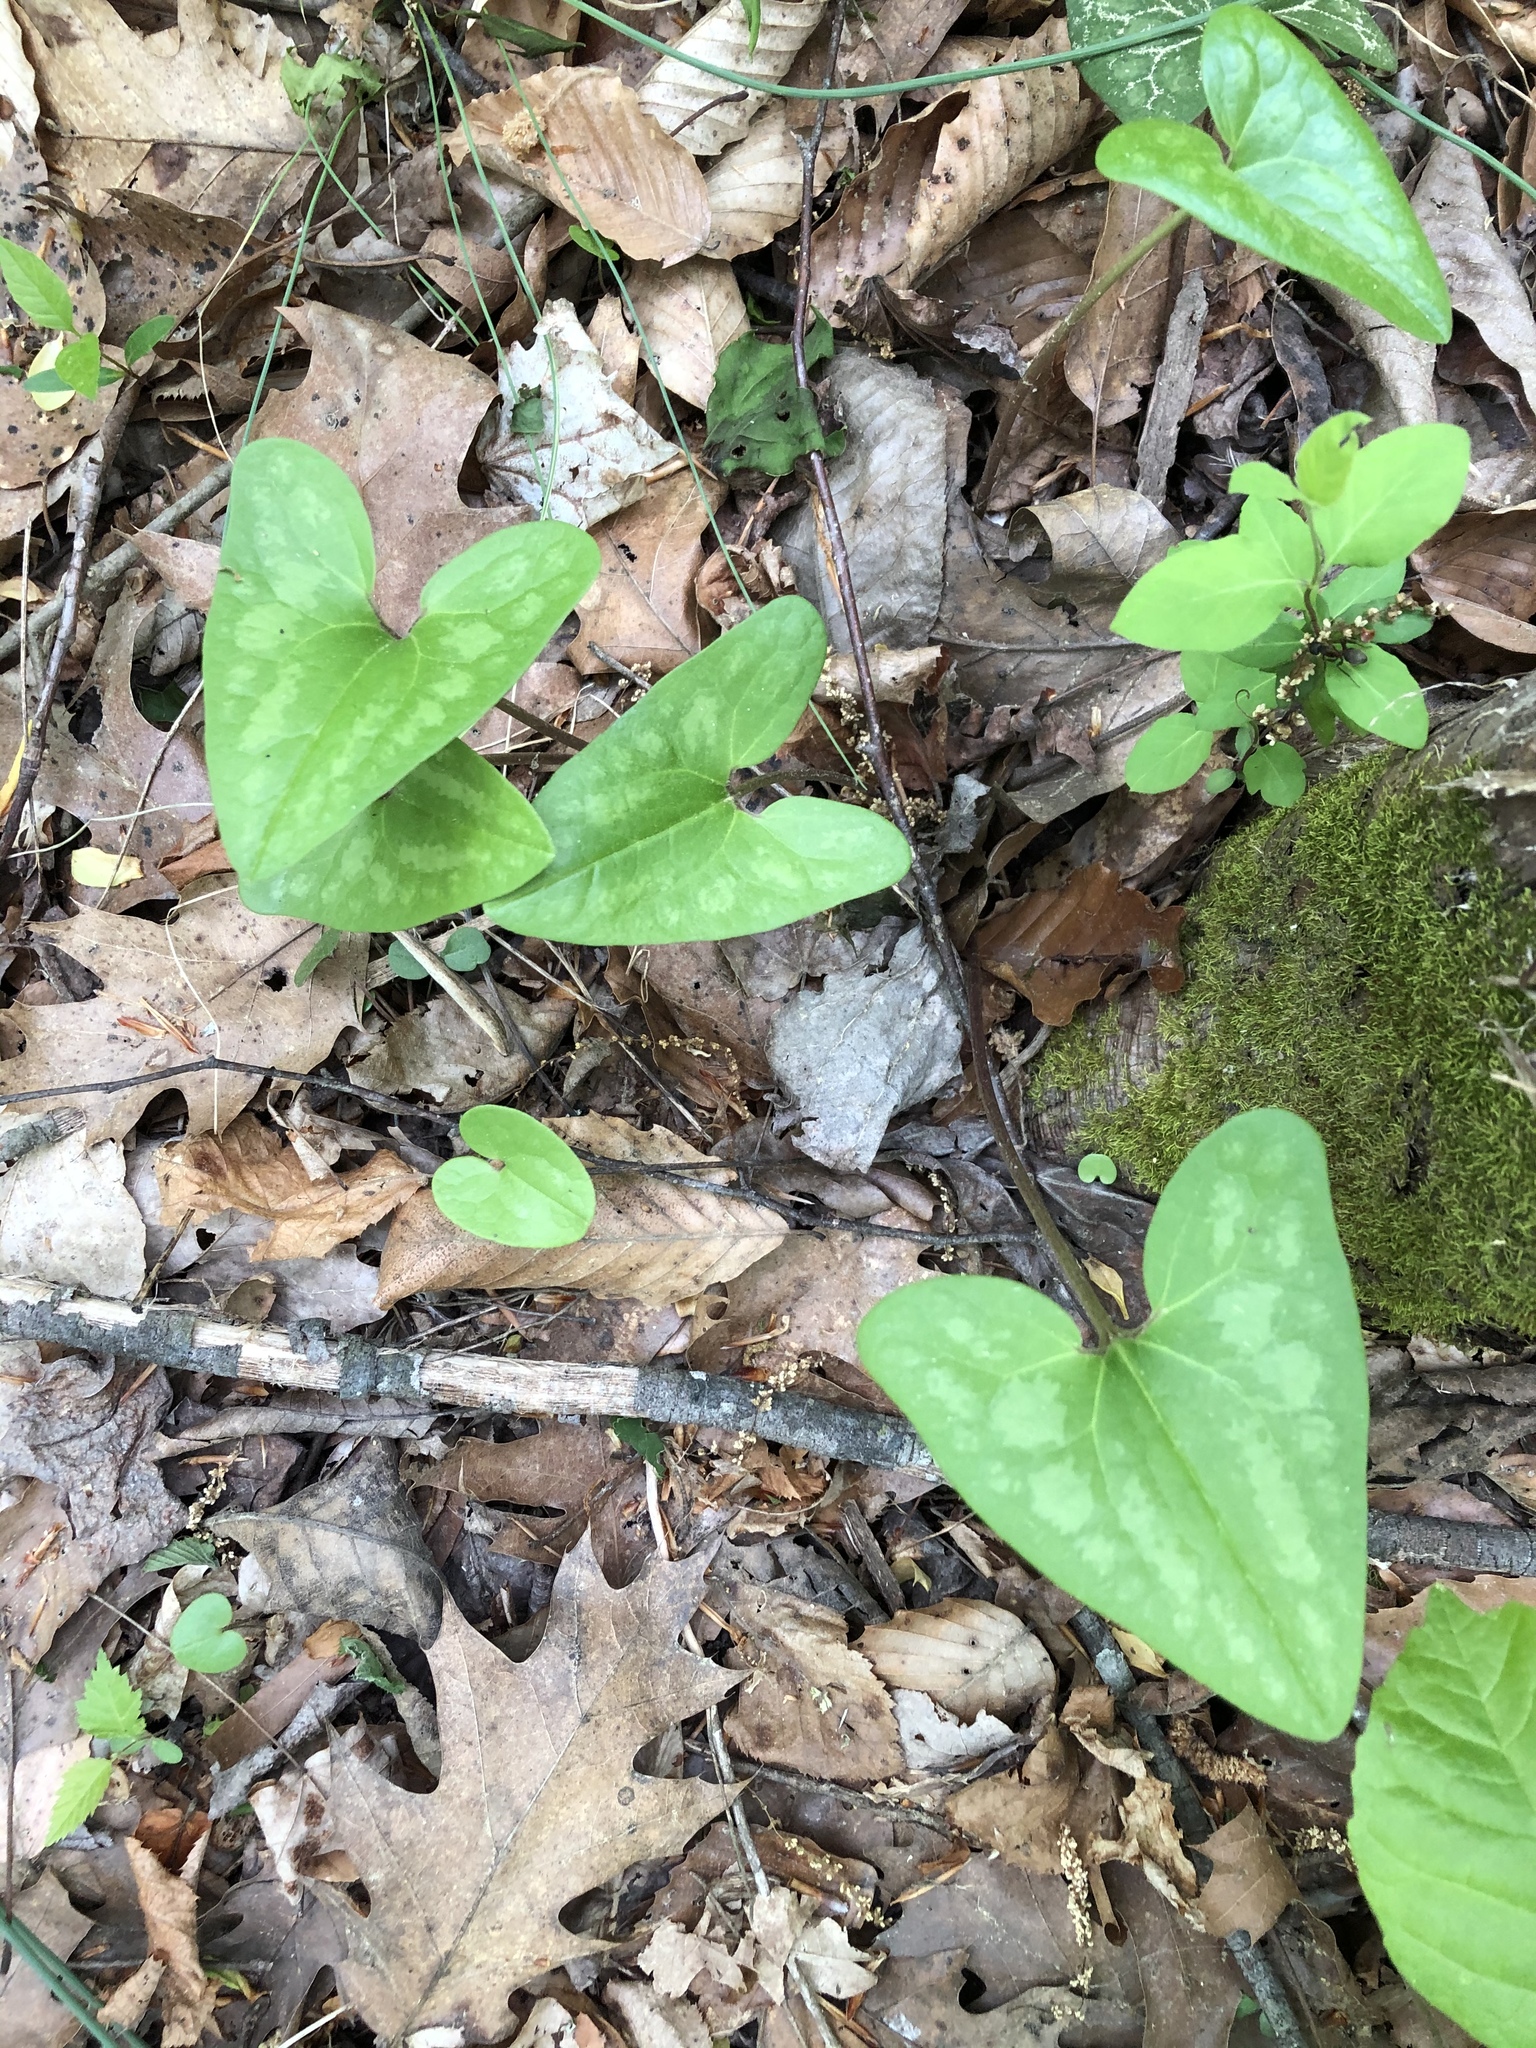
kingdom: Plantae
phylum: Tracheophyta
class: Magnoliopsida
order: Piperales
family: Aristolochiaceae
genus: Hexastylis
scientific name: Hexastylis arifolia
